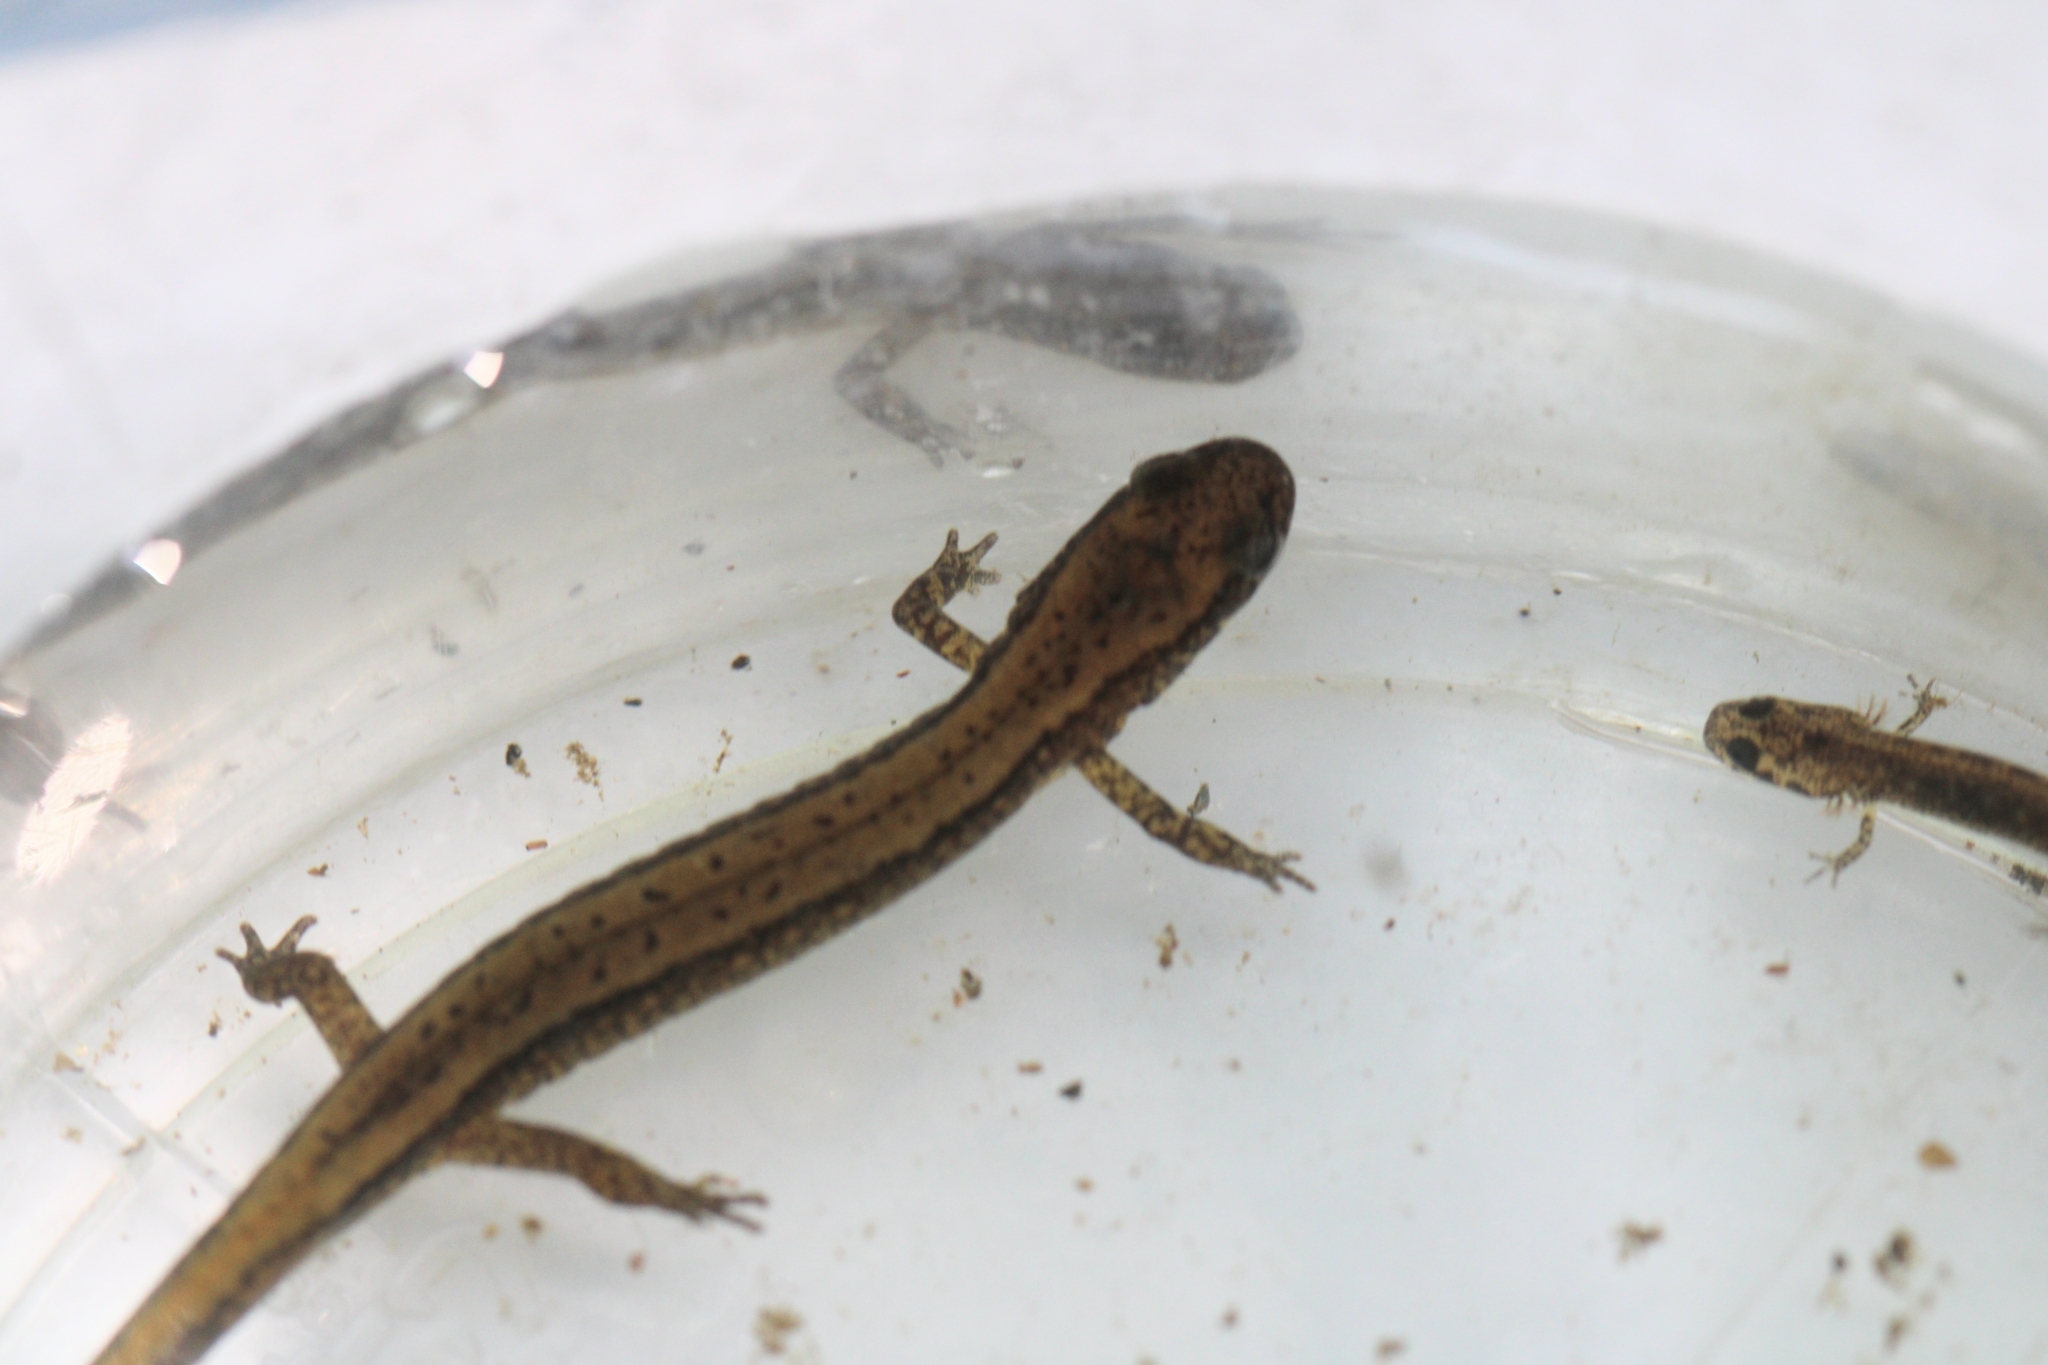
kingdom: Animalia
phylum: Chordata
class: Amphibia
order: Caudata
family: Plethodontidae
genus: Eurycea
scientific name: Eurycea bislineata
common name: Northern two-lined salamander
